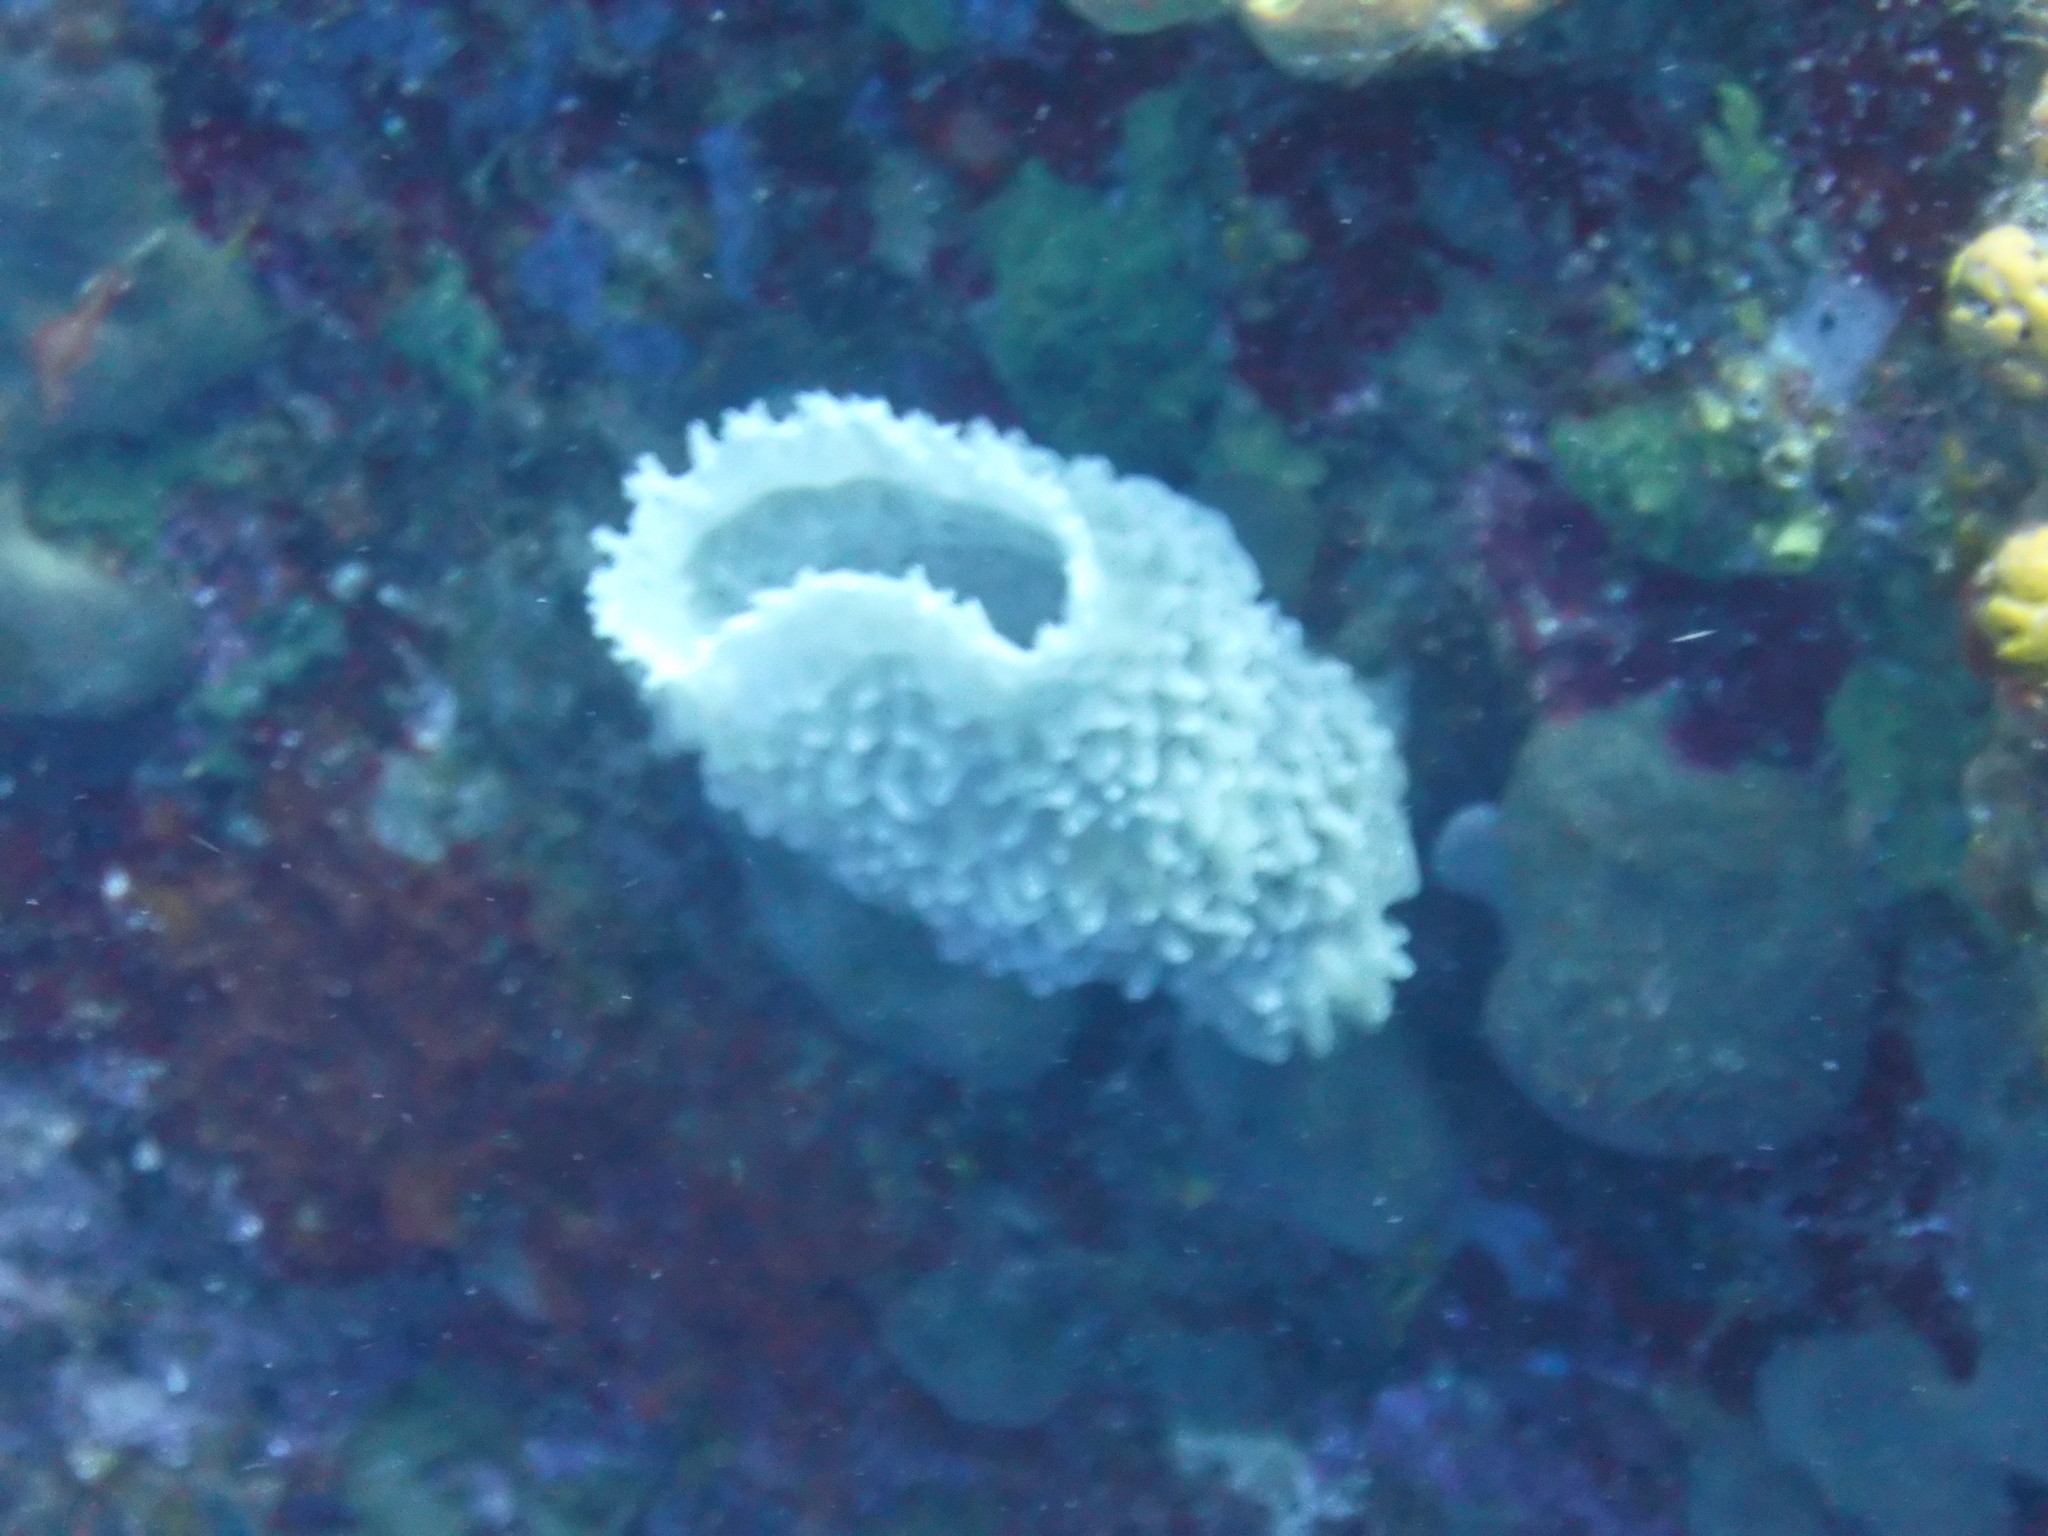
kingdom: Animalia
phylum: Porifera
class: Demospongiae
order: Haplosclerida
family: Callyspongiidae
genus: Callyspongia
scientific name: Callyspongia plicifera
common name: Azure vase sponge
